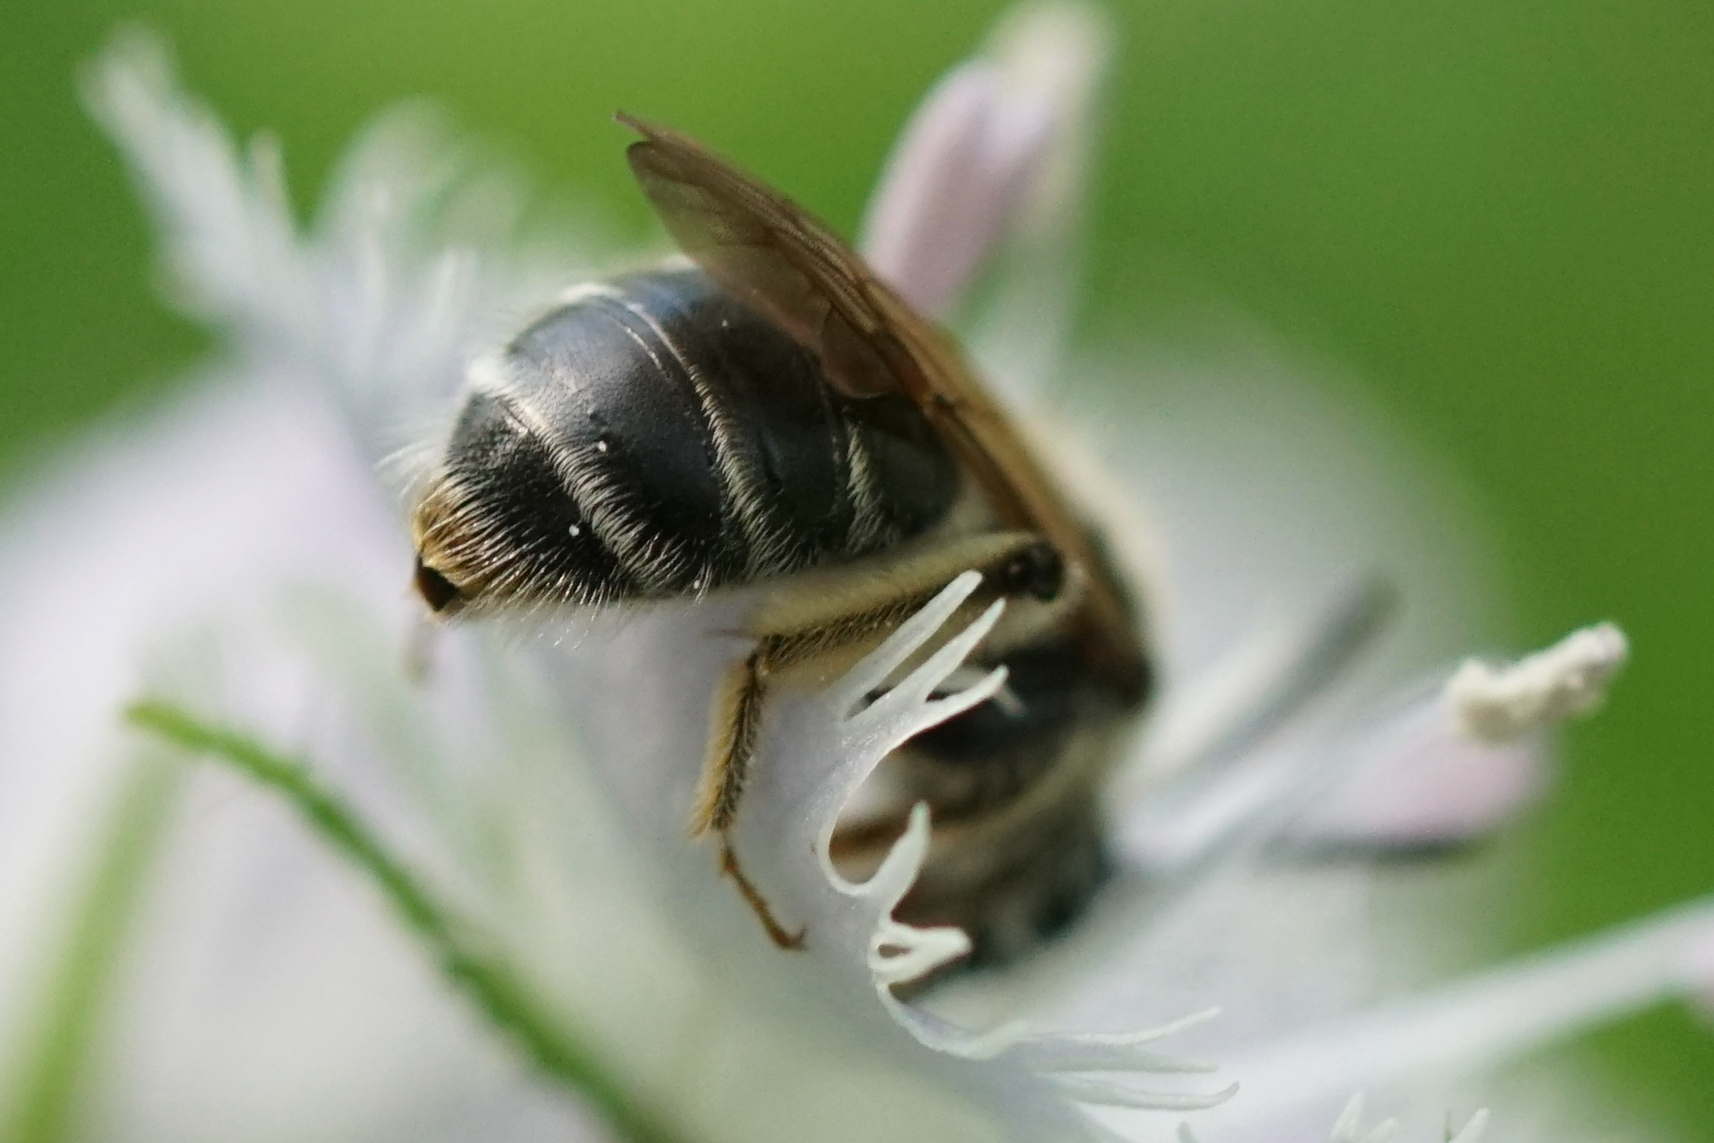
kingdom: Animalia
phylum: Arthropoda
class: Insecta
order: Hymenoptera
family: Andrenidae
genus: Andrena
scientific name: Andrena
